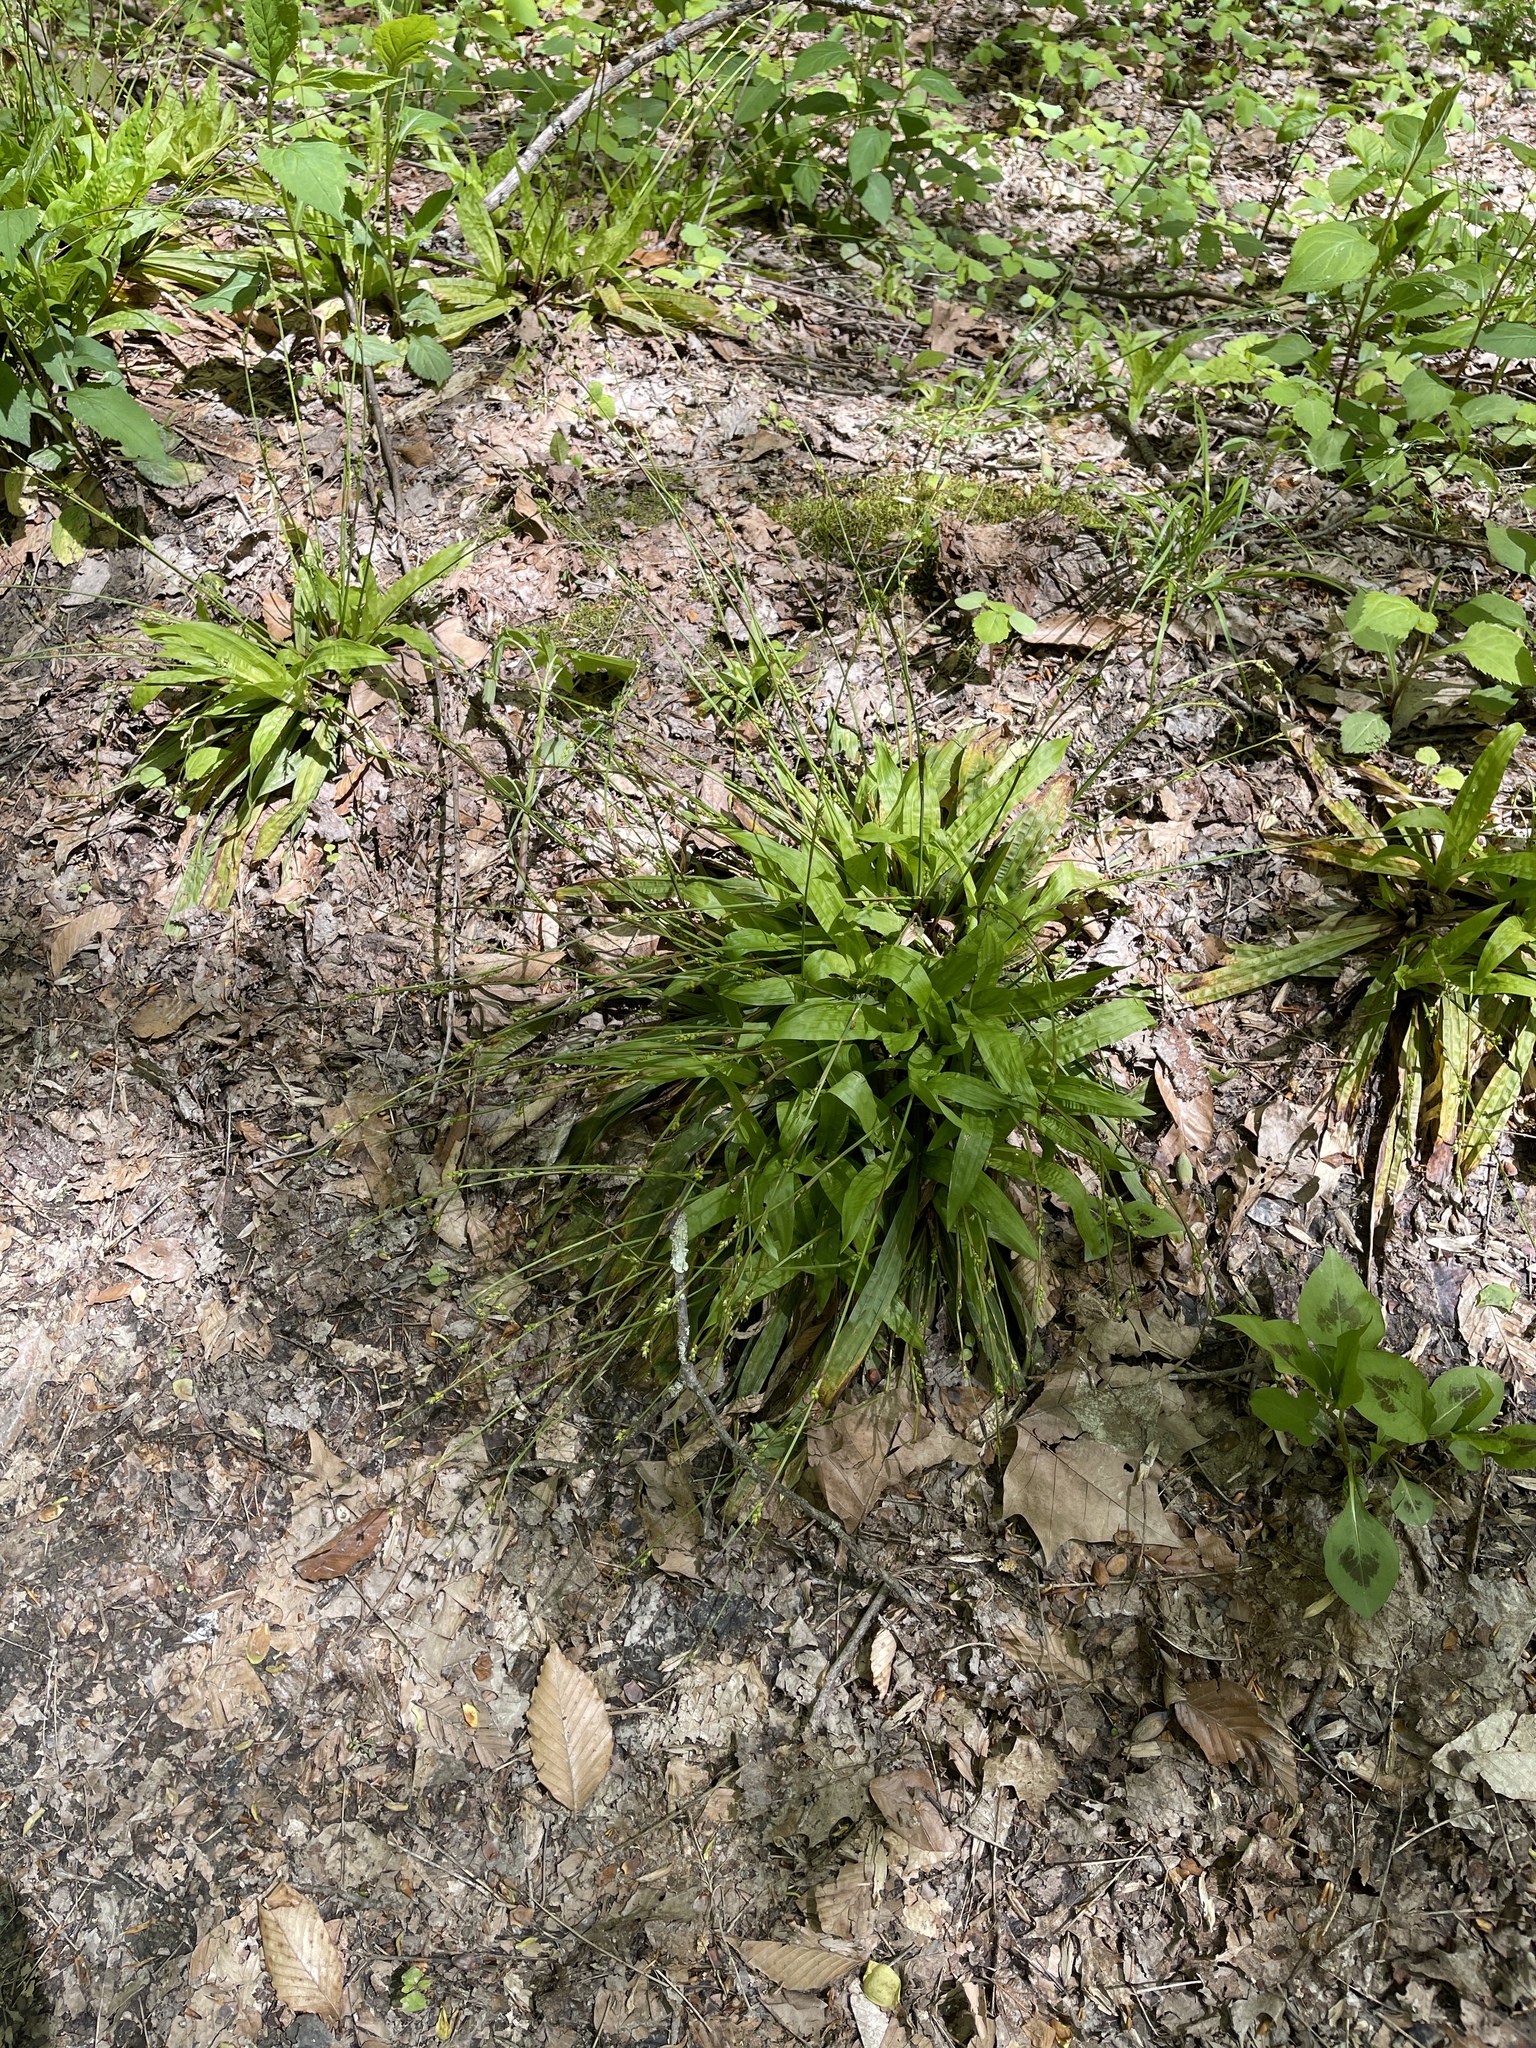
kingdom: Plantae
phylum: Tracheophyta
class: Liliopsida
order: Poales
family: Cyperaceae
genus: Carex
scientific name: Carex plantaginea
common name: Plantain-leaved sedge
